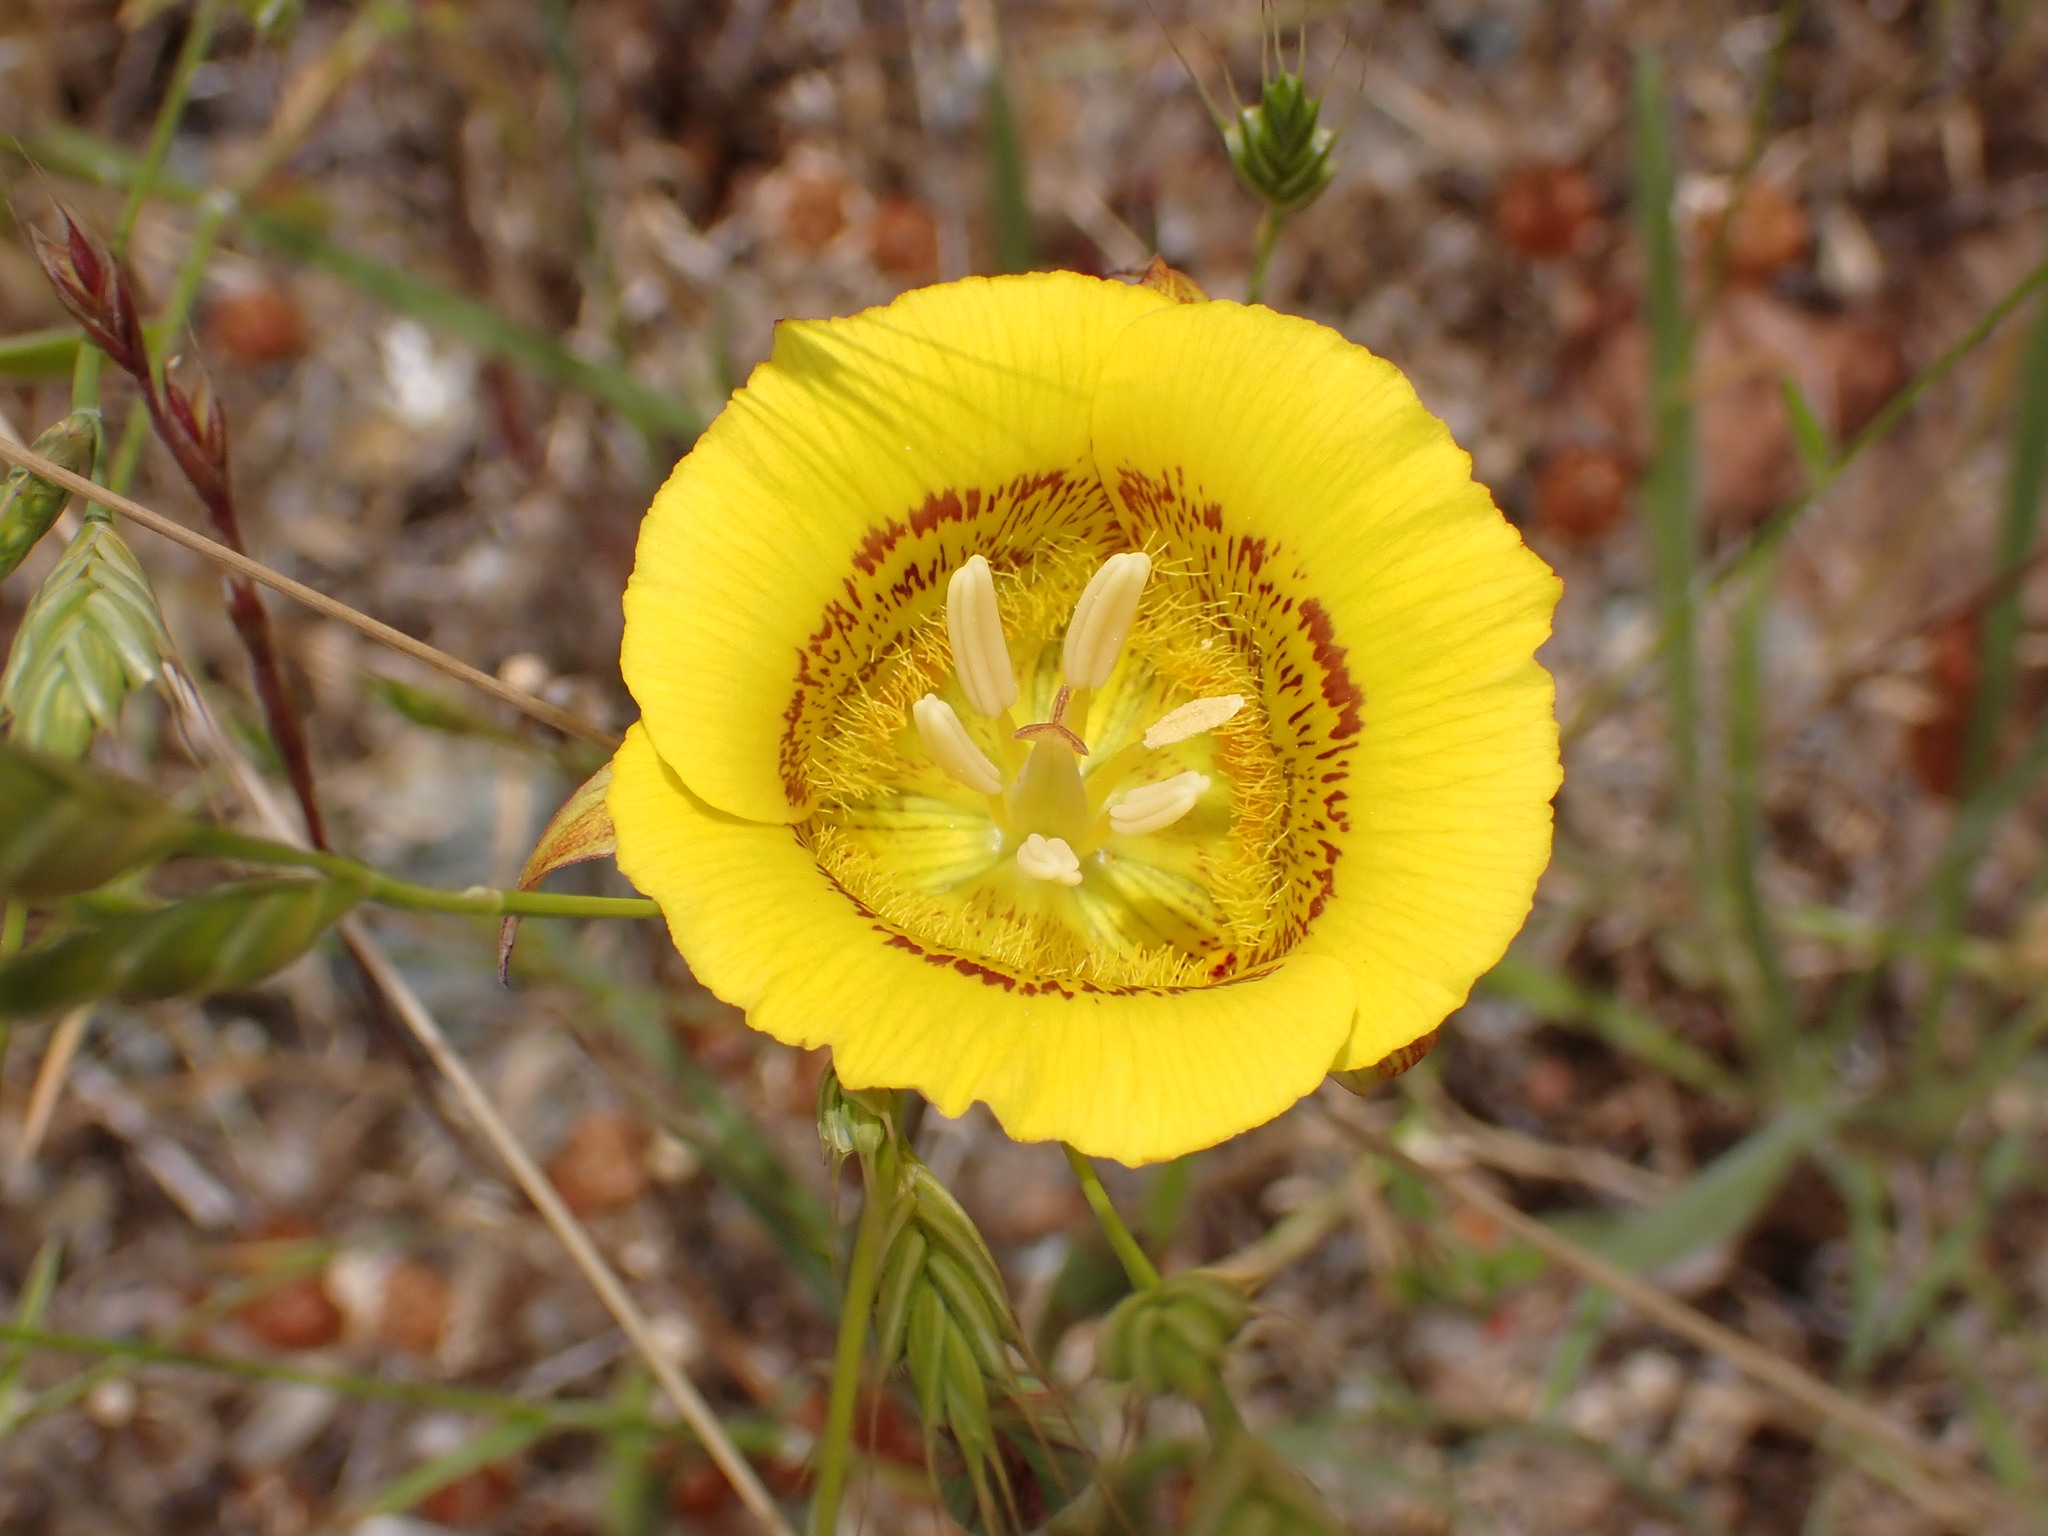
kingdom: Plantae
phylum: Tracheophyta
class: Liliopsida
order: Liliales
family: Liliaceae
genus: Calochortus
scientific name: Calochortus luteus
